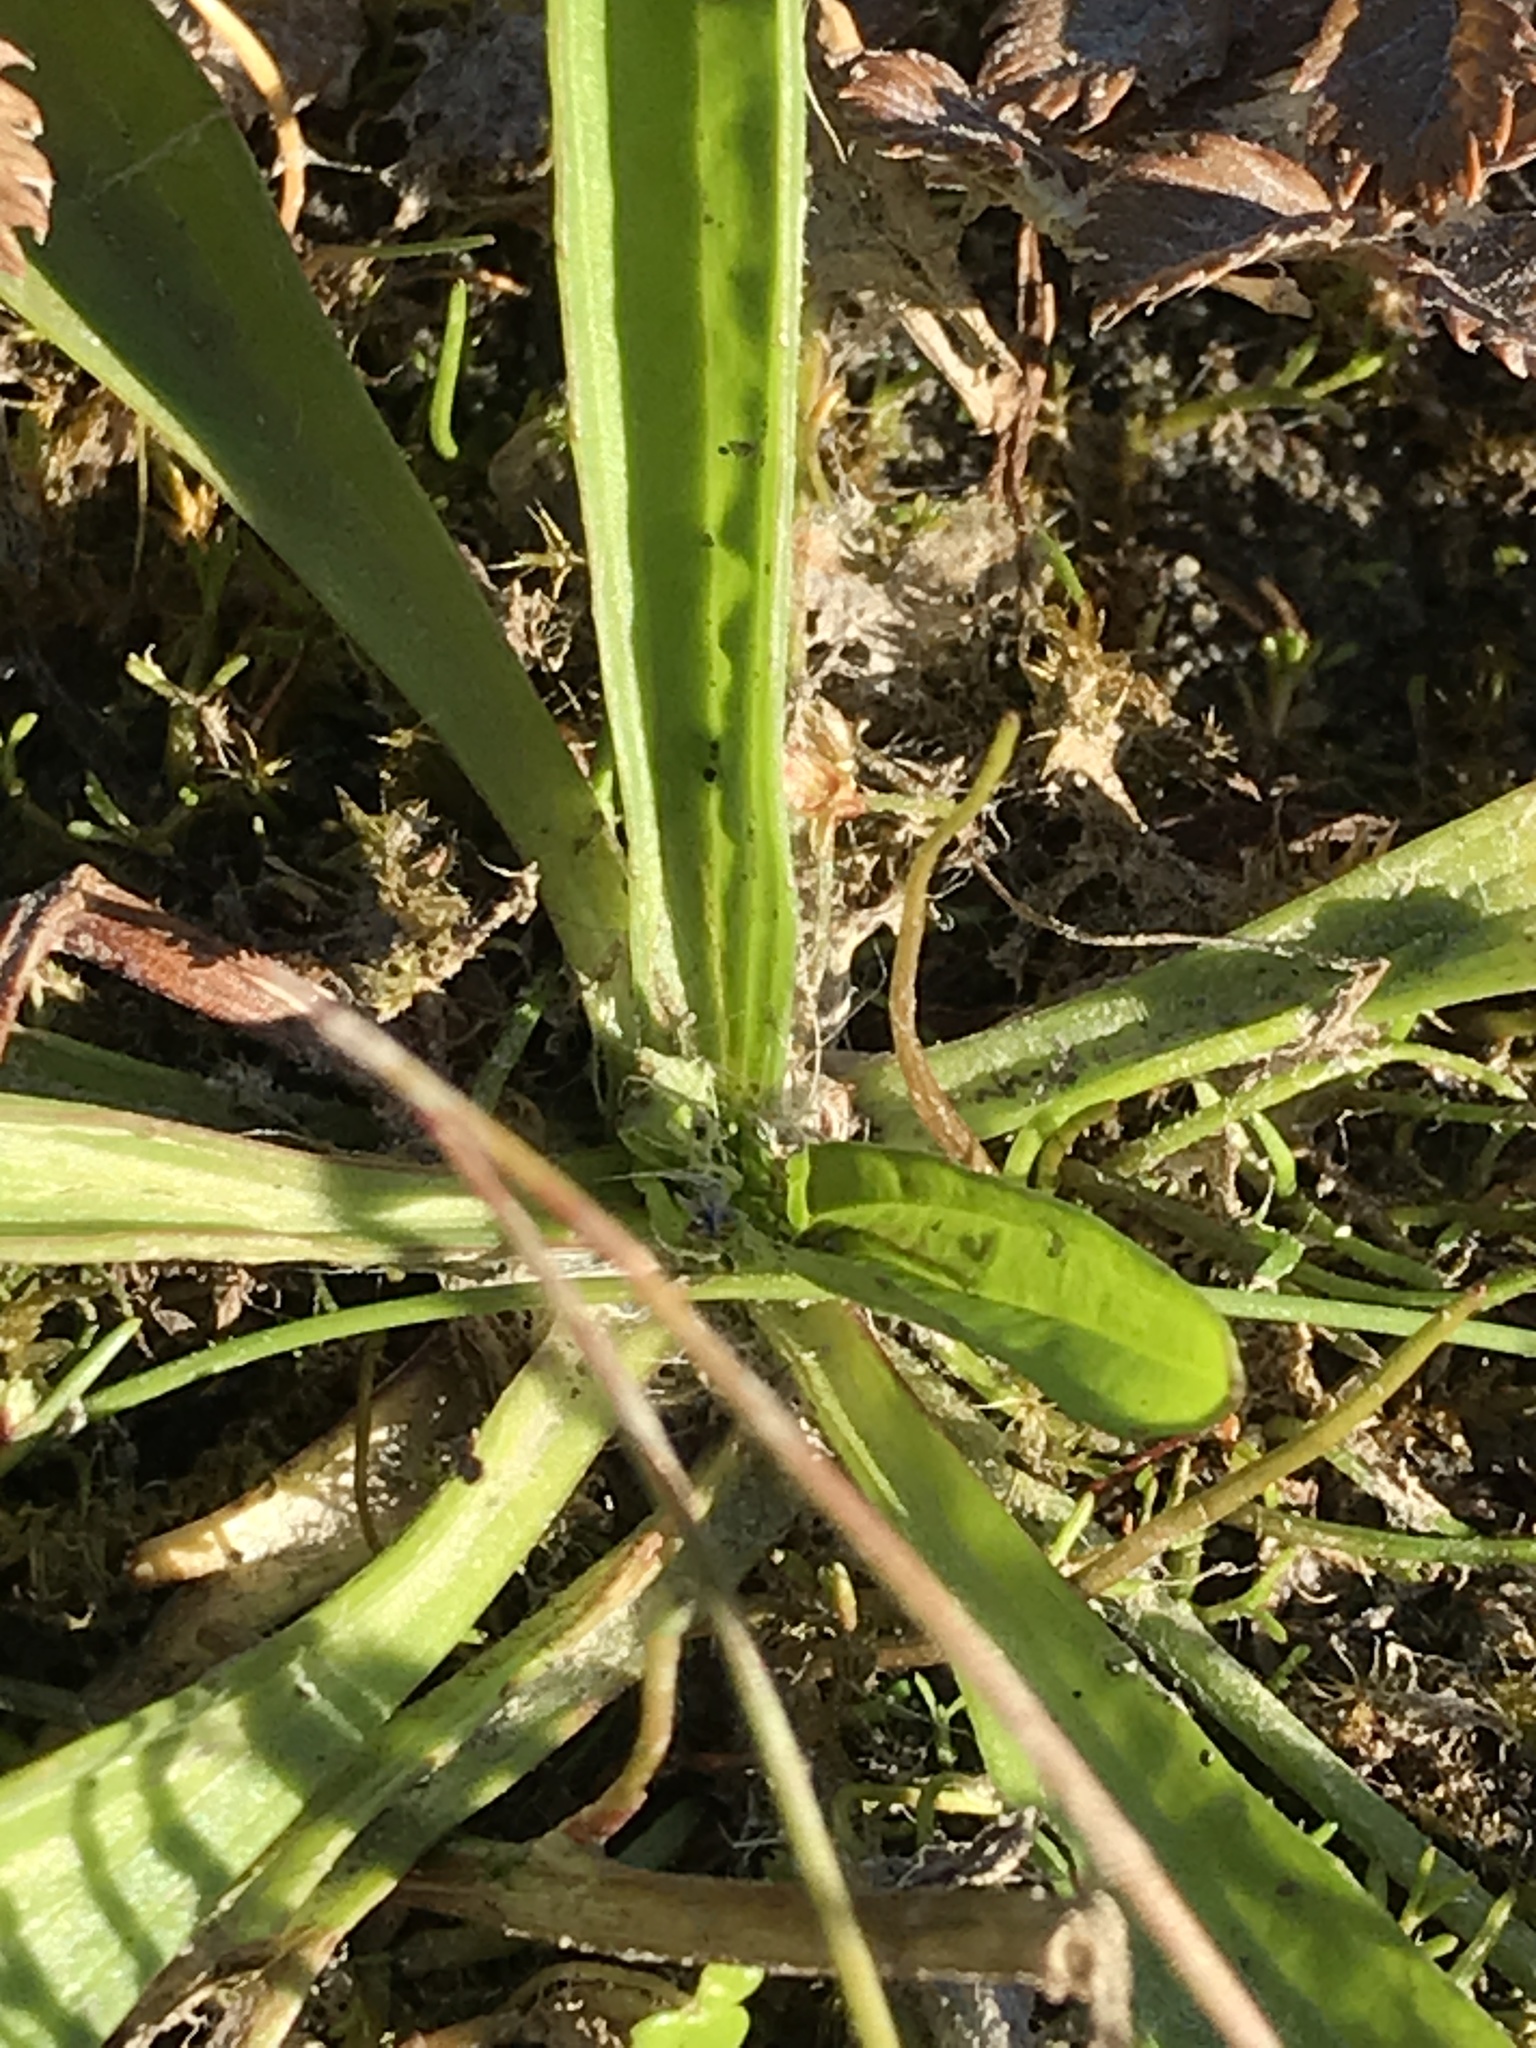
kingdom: Plantae
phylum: Tracheophyta
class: Magnoliopsida
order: Lamiales
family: Plantaginaceae
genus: Plantago
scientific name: Plantago lanceolata
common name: Ribwort plantain
